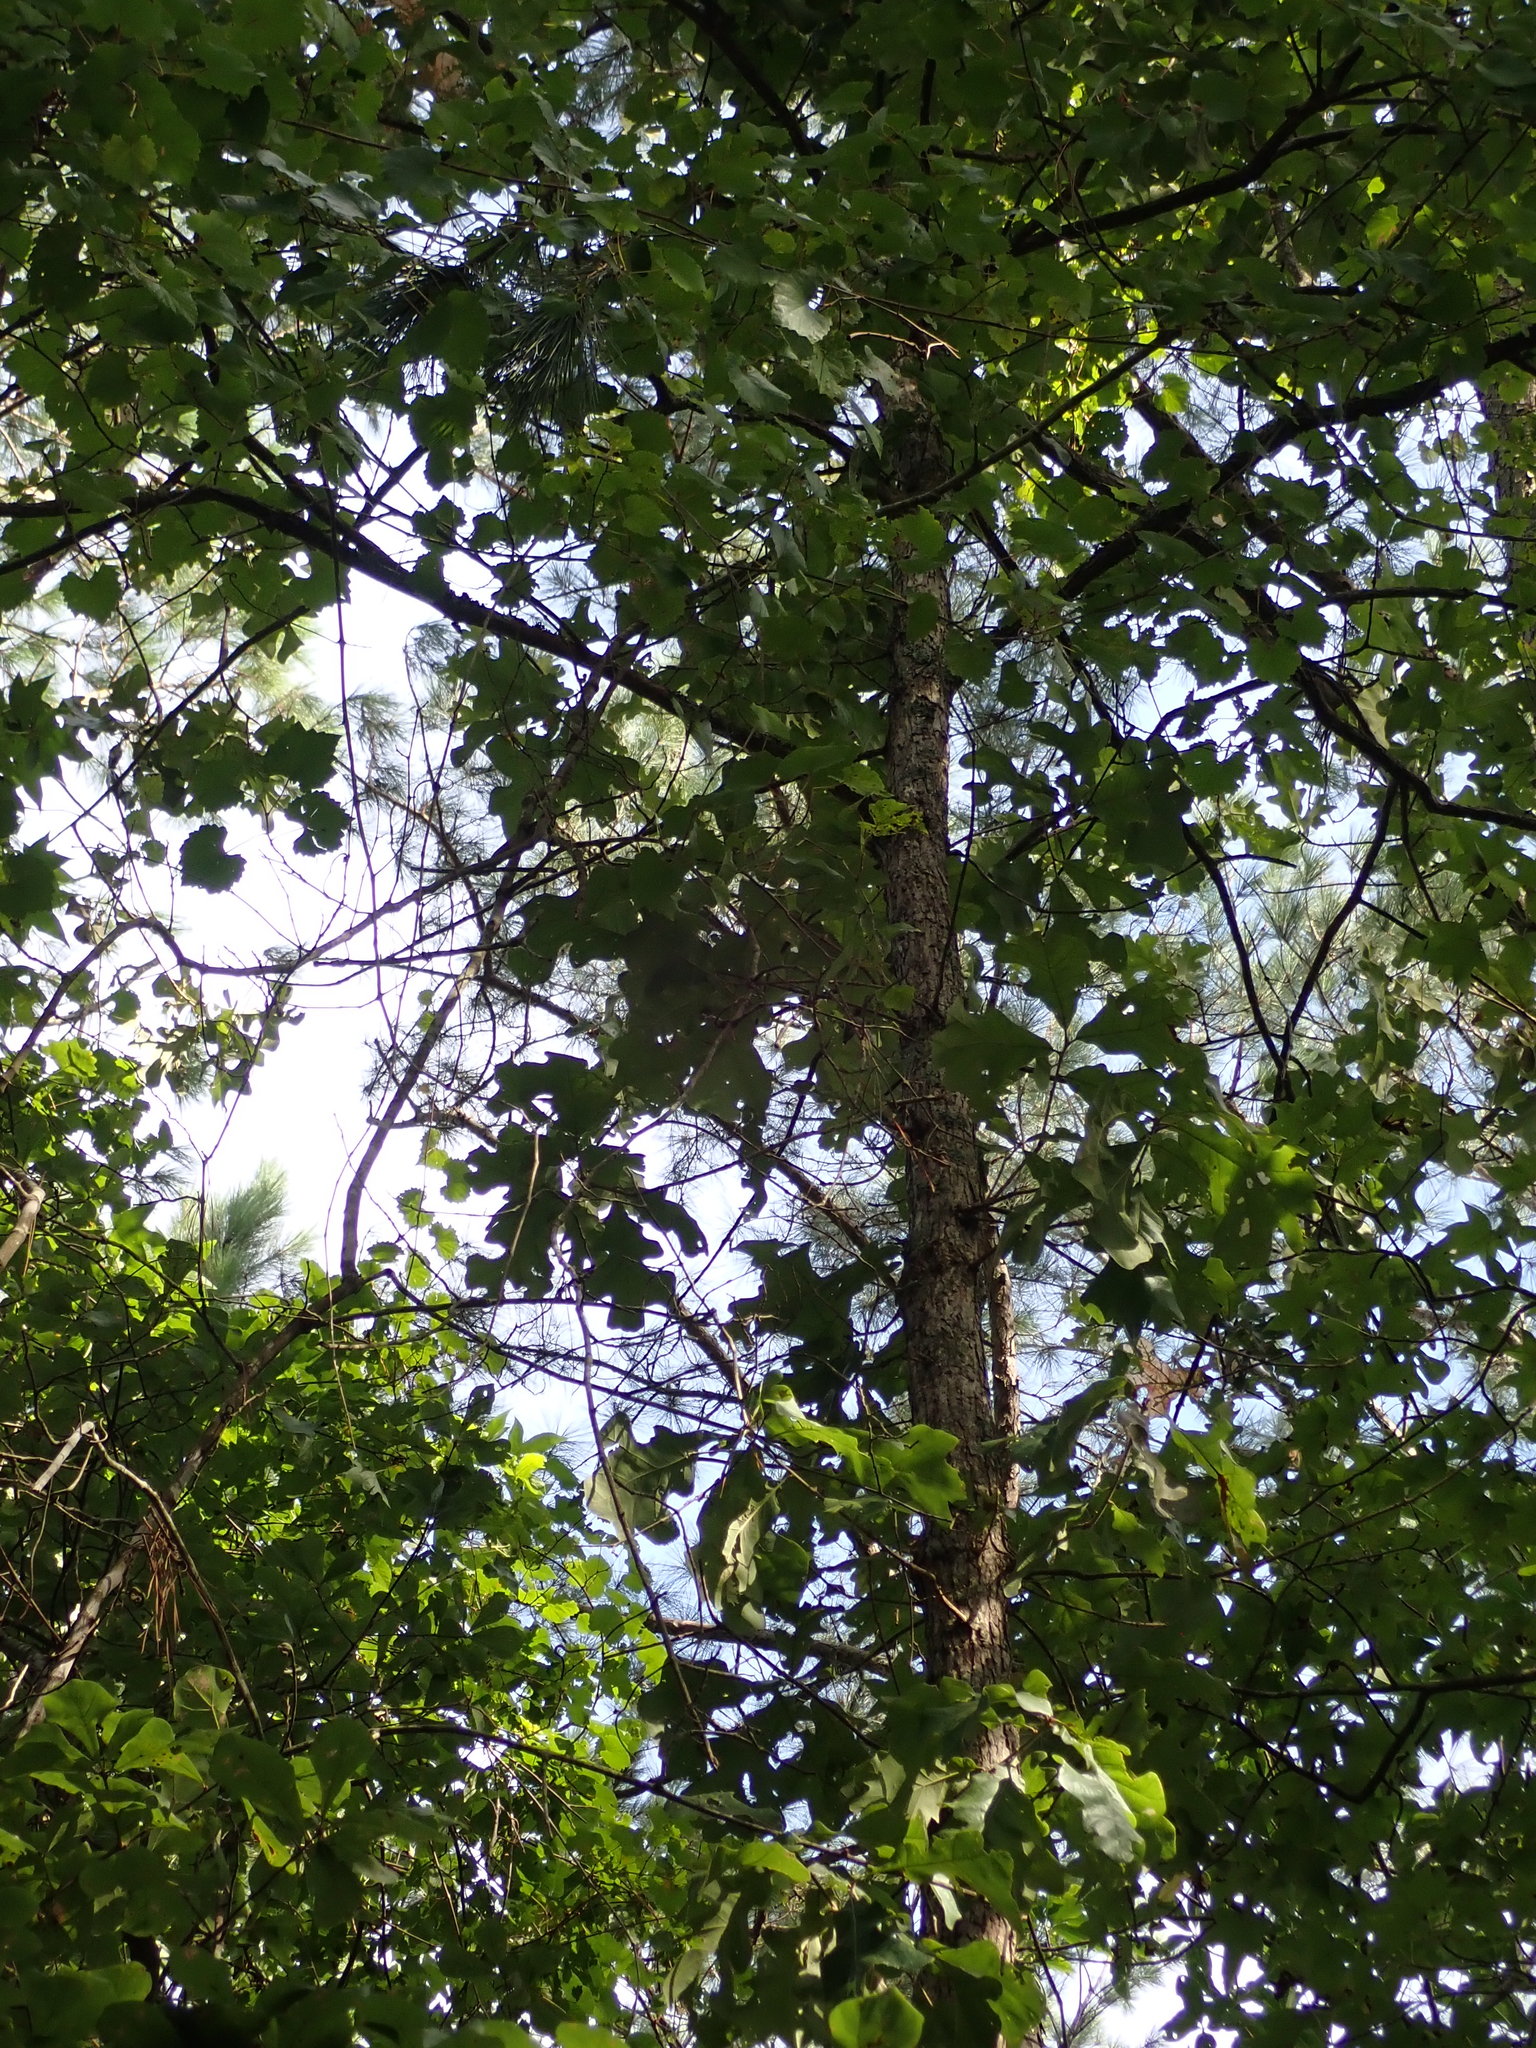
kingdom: Plantae
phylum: Tracheophyta
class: Magnoliopsida
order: Fagales
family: Fagaceae
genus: Quercus
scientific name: Quercus stellata
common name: Post oak
